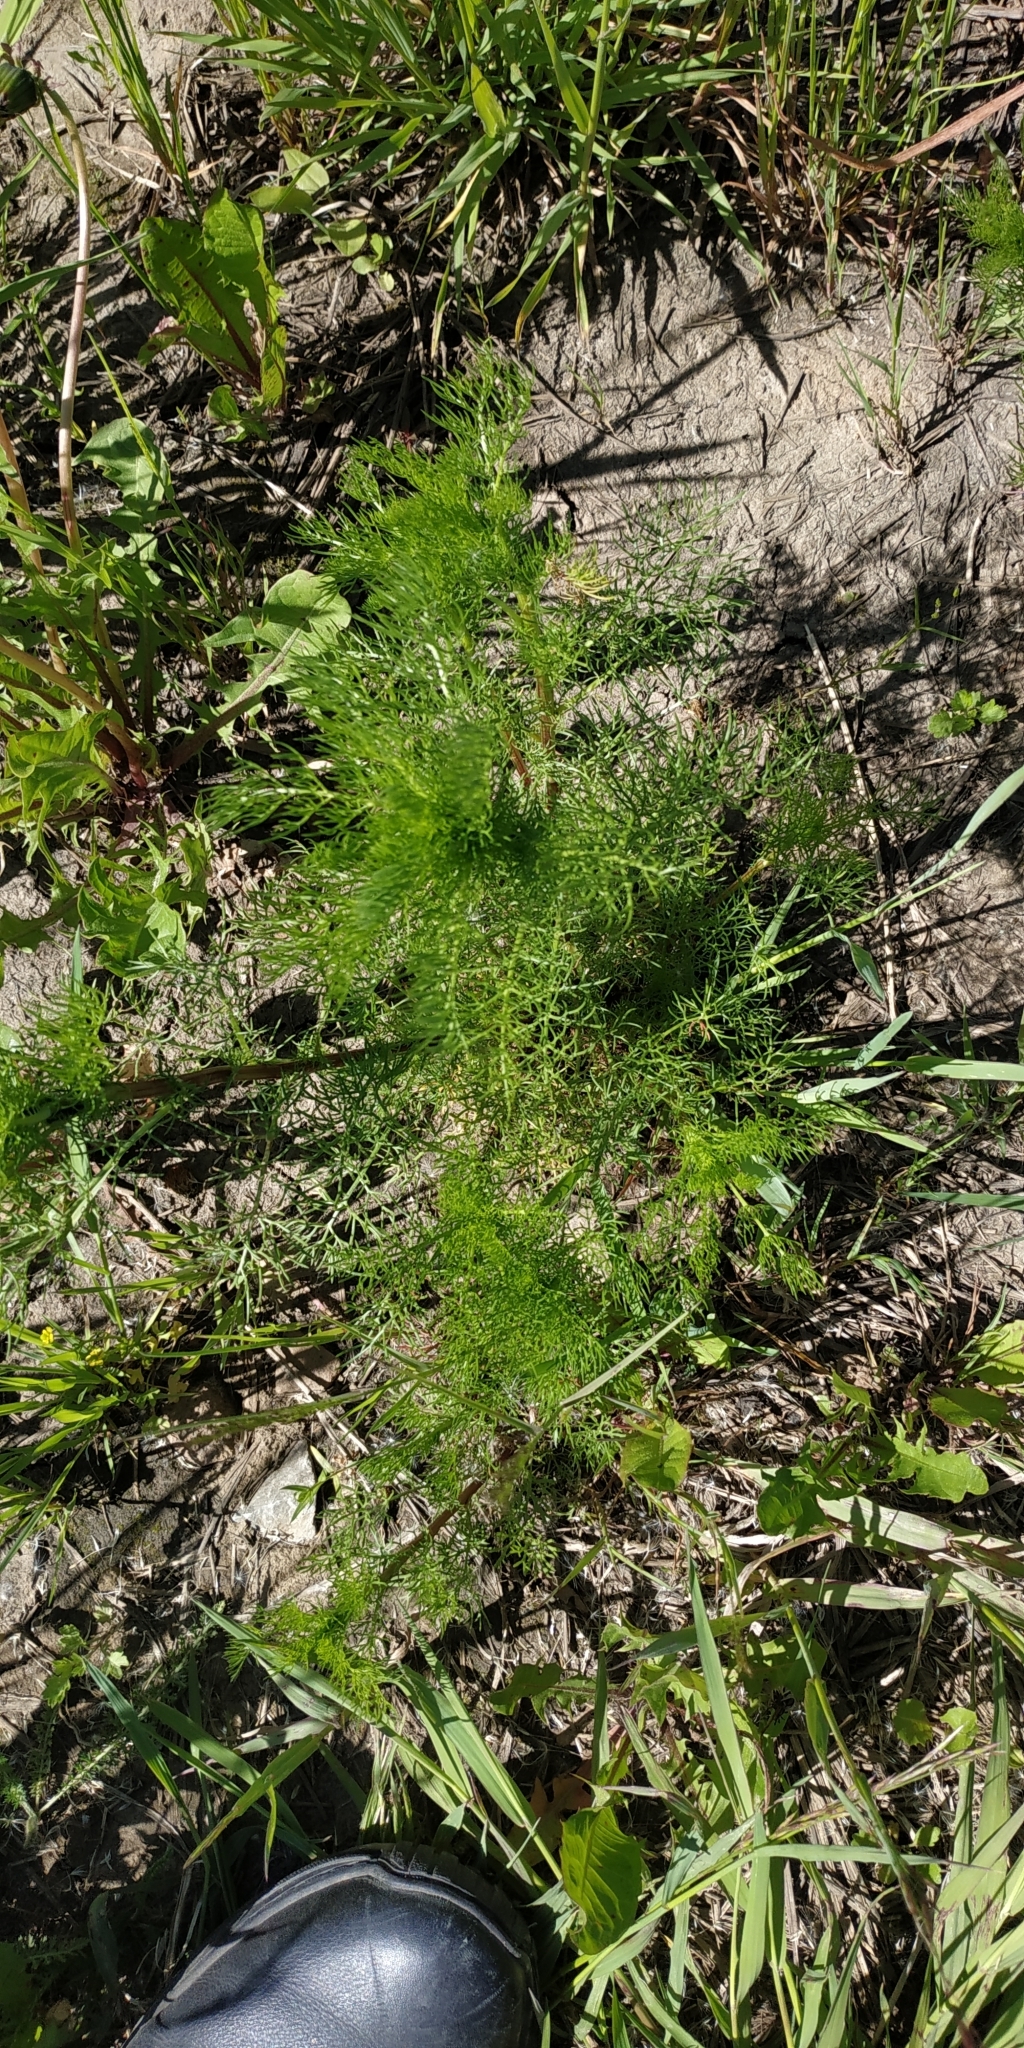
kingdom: Plantae
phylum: Tracheophyta
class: Magnoliopsida
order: Asterales
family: Asteraceae
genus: Tripleurospermum
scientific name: Tripleurospermum inodorum
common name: Scentless mayweed
